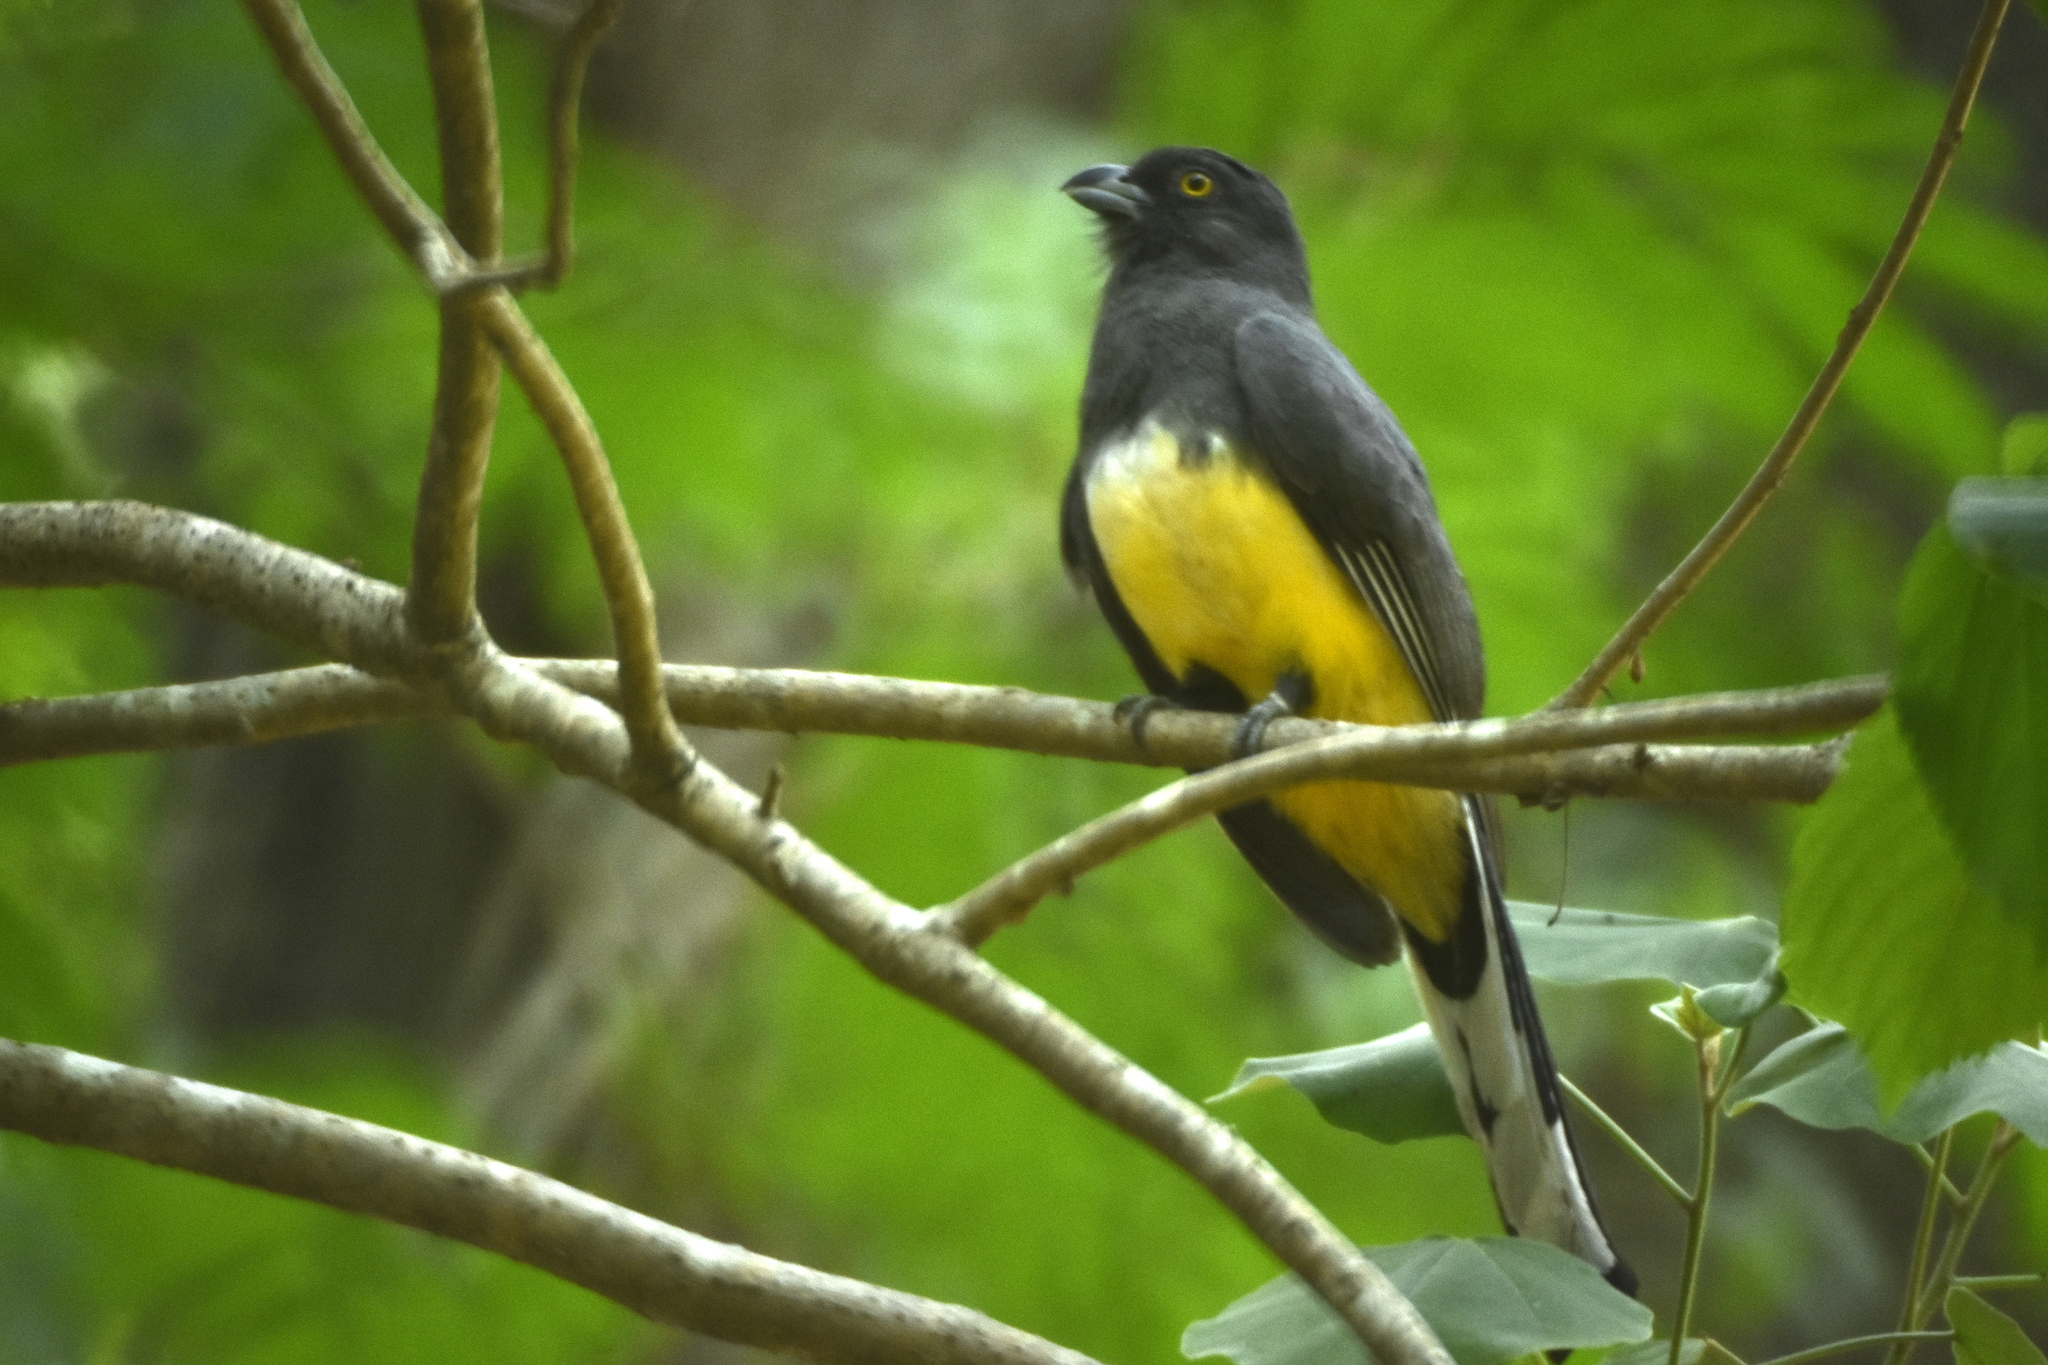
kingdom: Animalia
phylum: Chordata
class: Aves
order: Trogoniformes
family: Trogonidae
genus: Trogon
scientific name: Trogon citreolus
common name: Citreoline trogon
